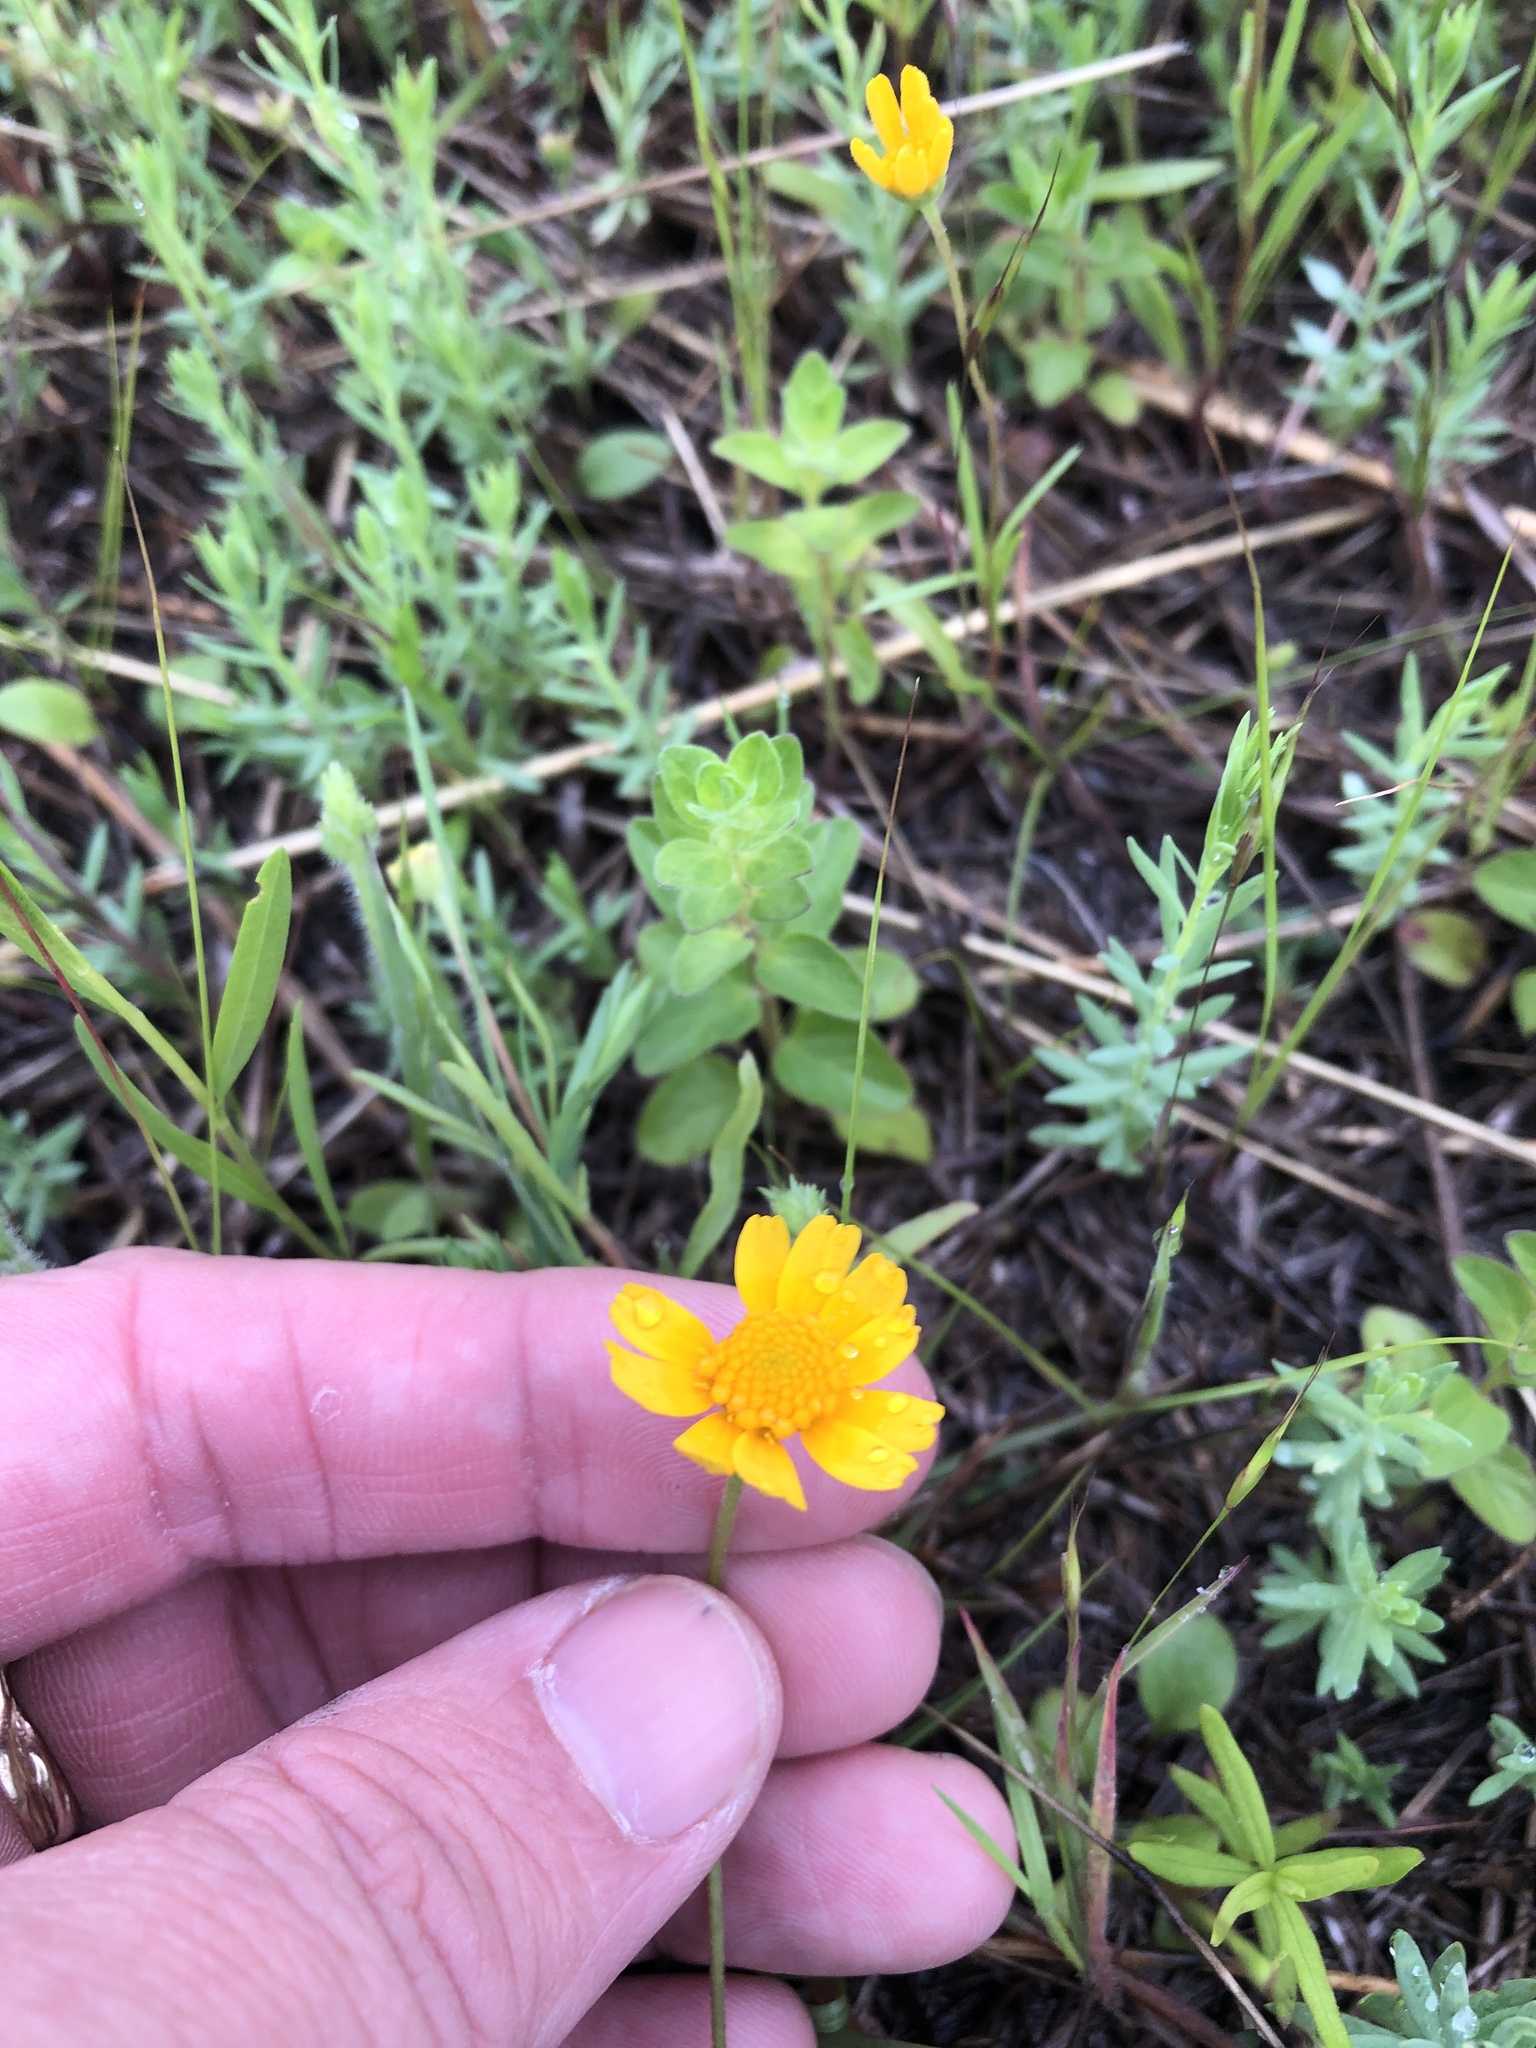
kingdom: Plantae
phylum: Tracheophyta
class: Magnoliopsida
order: Asterales
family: Asteraceae
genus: Tetraneuris
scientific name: Tetraneuris linearifolia
